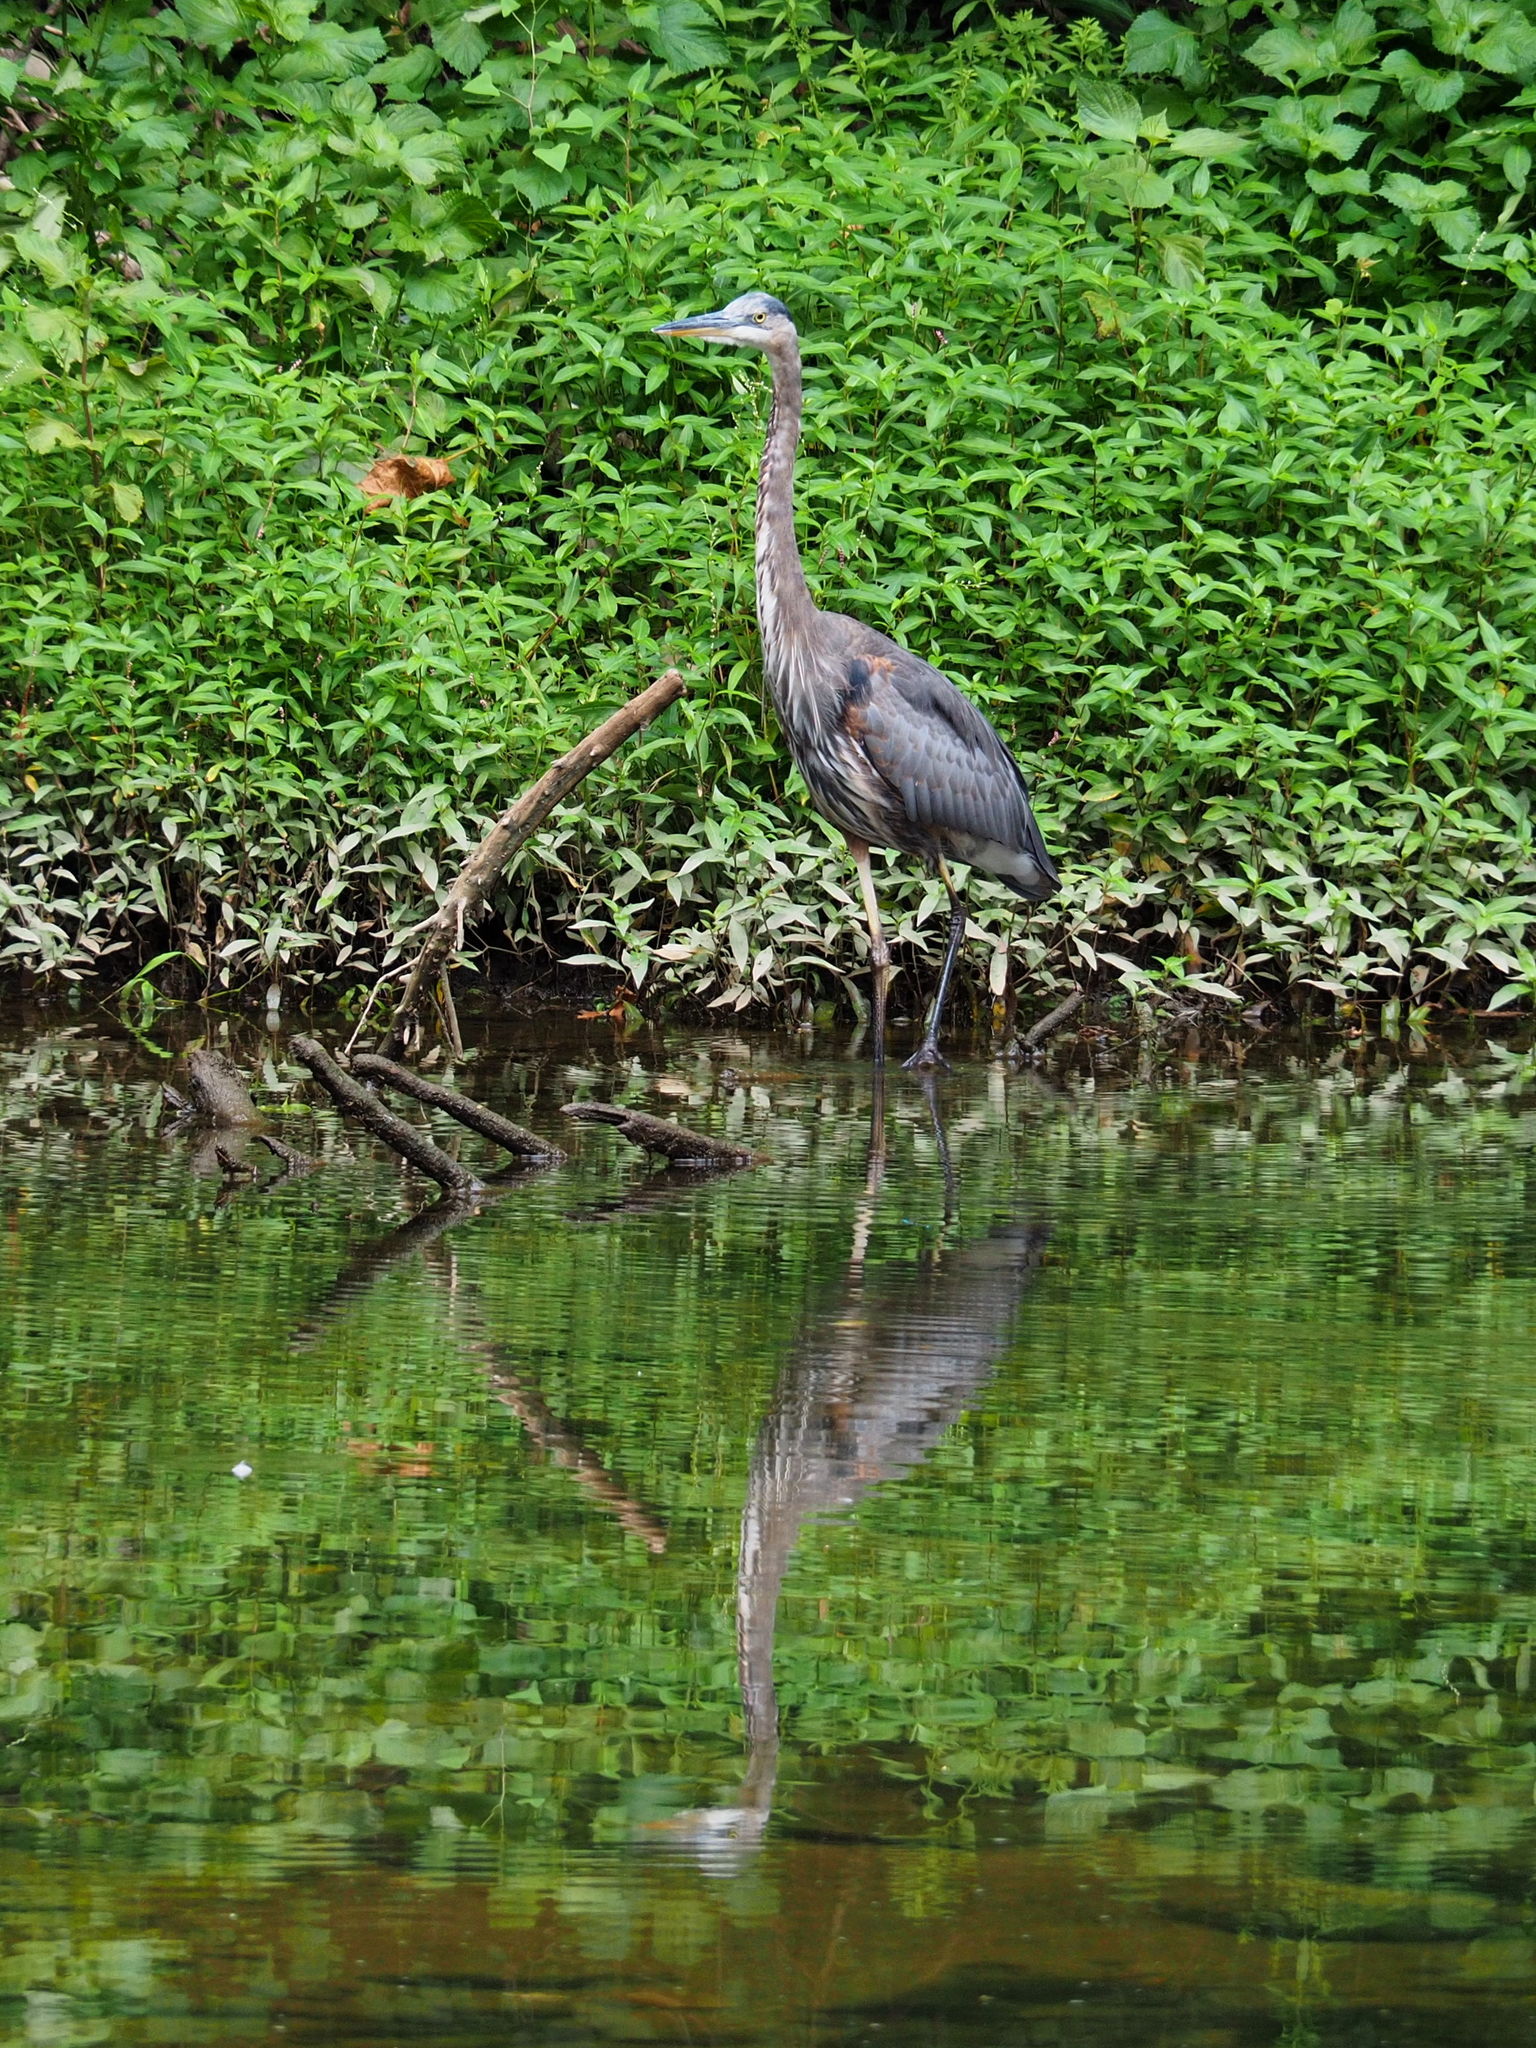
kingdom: Animalia
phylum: Chordata
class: Aves
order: Pelecaniformes
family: Ardeidae
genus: Ardea
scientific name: Ardea herodias
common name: Great blue heron
